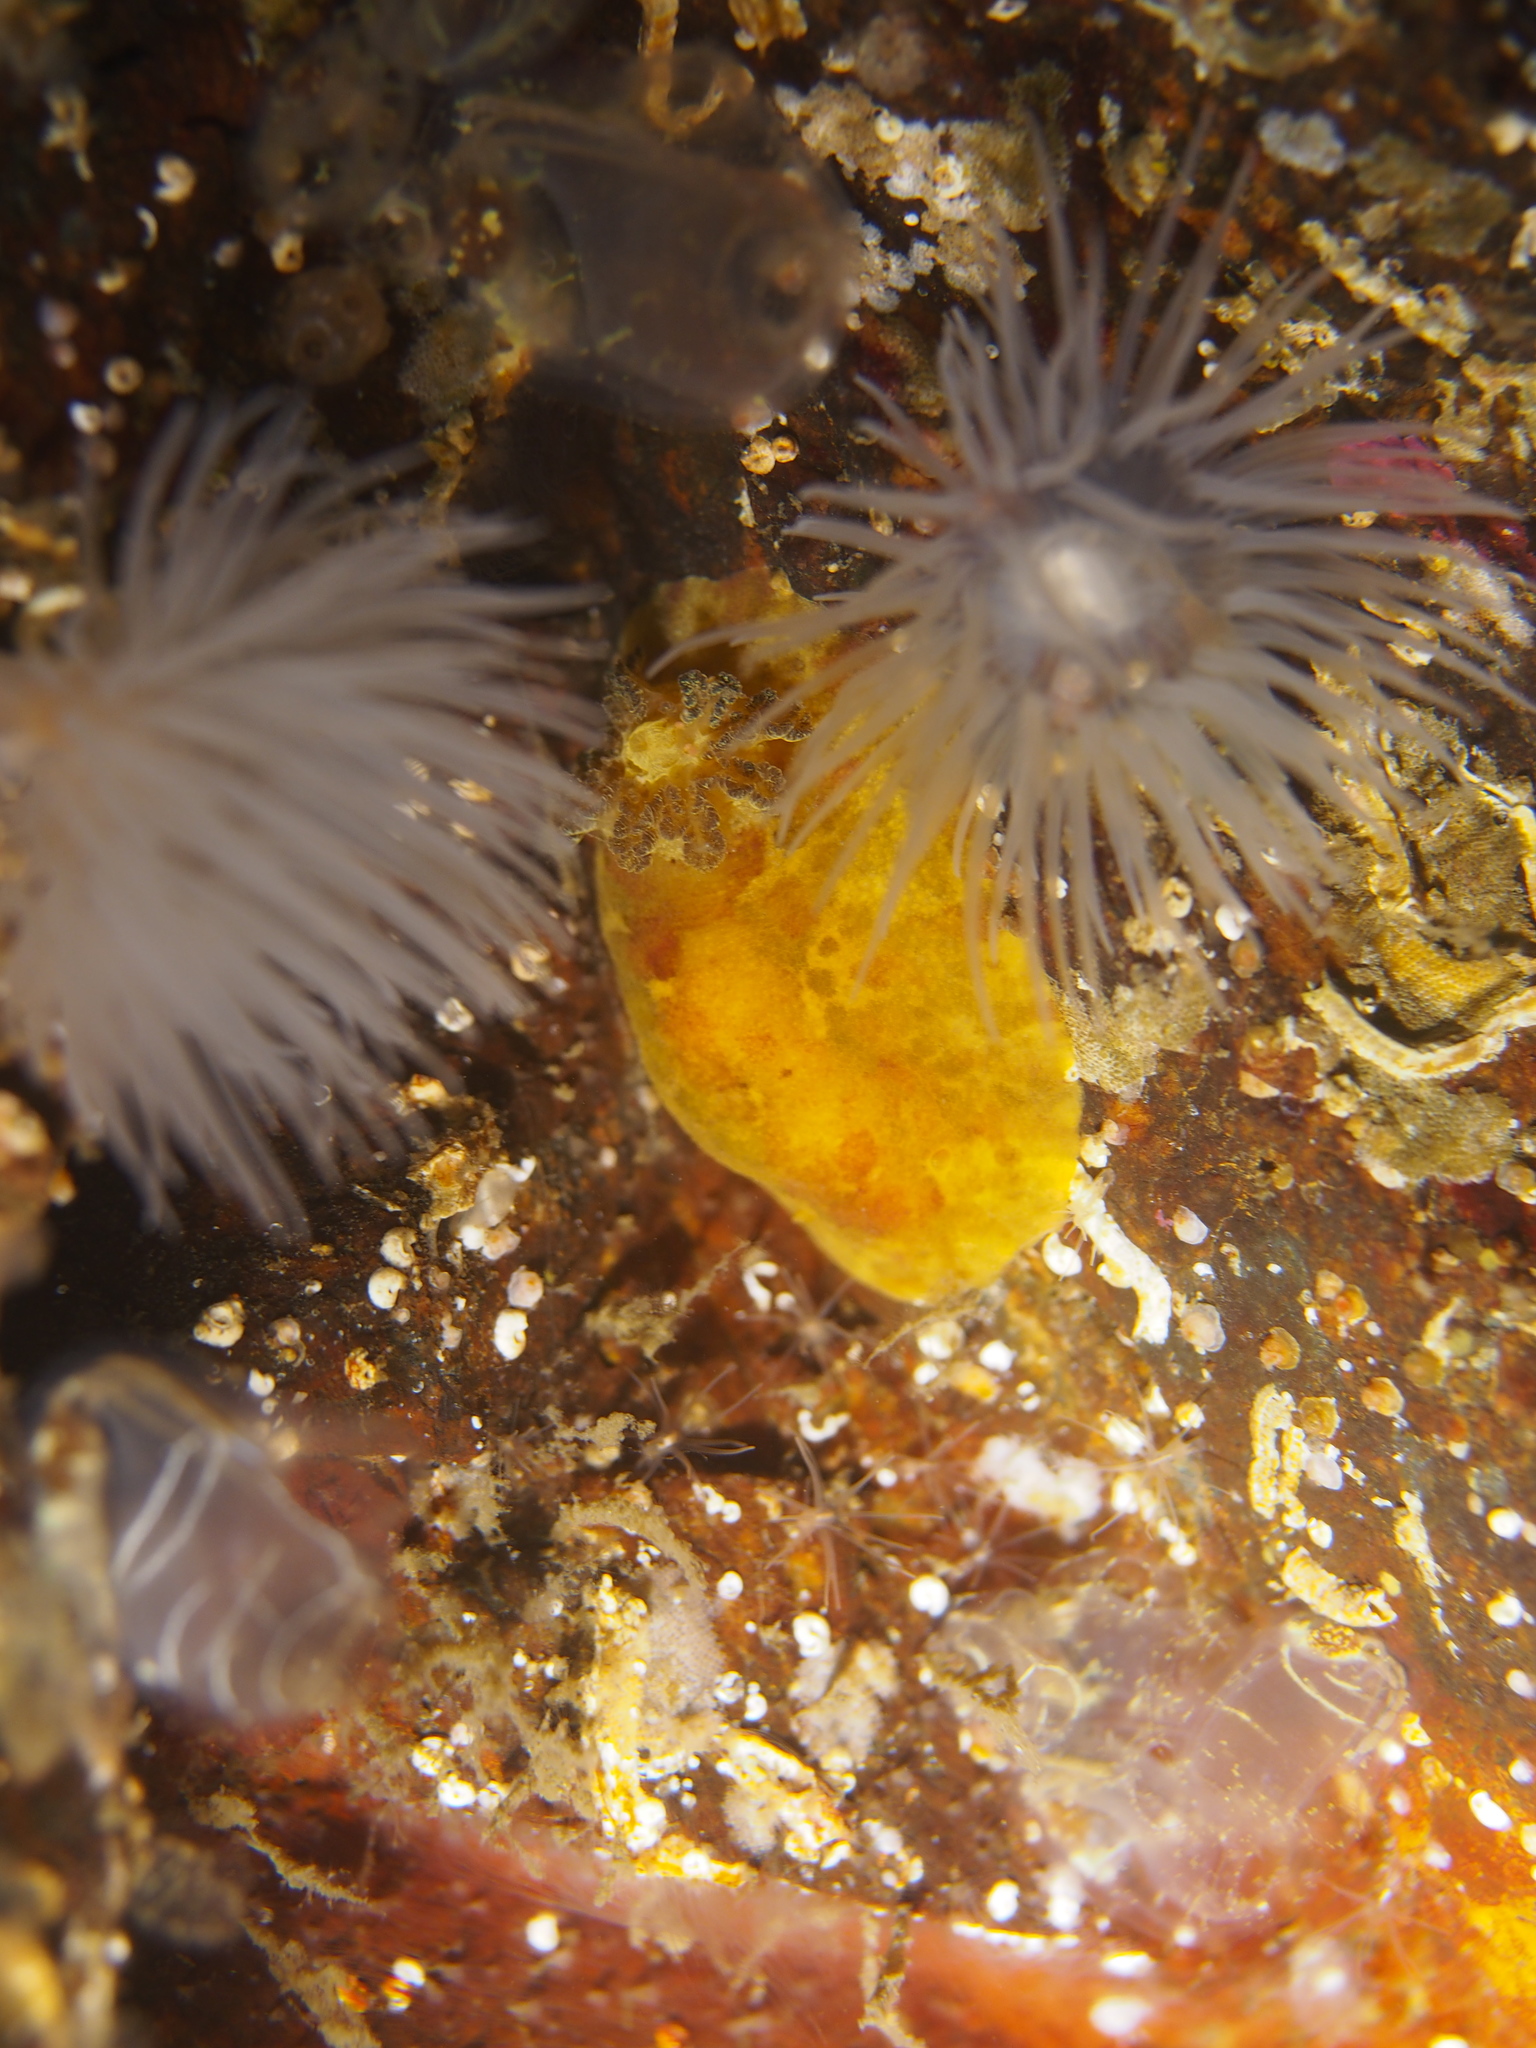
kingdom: Animalia
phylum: Mollusca
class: Gastropoda
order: Nudibranchia
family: Dorididae
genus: Doris
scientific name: Doris pseudoargus
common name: Sea lemon
